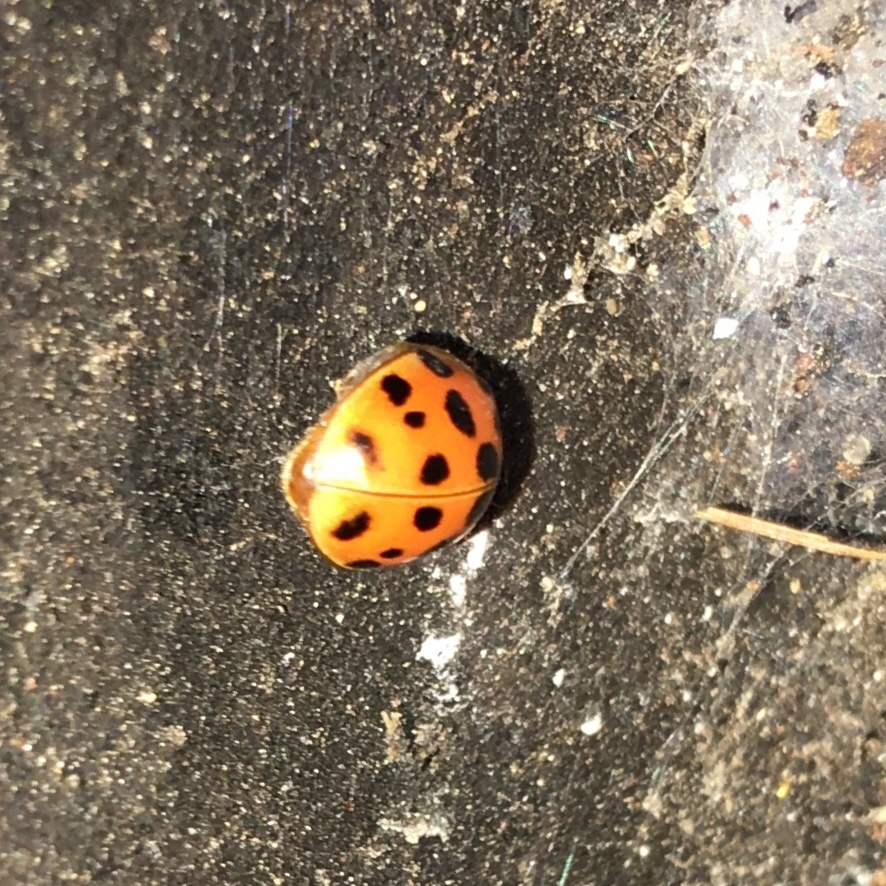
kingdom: Animalia
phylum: Arthropoda
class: Insecta
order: Coleoptera
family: Coccinellidae
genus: Harmonia
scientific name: Harmonia axyridis
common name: Harlequin ladybird
